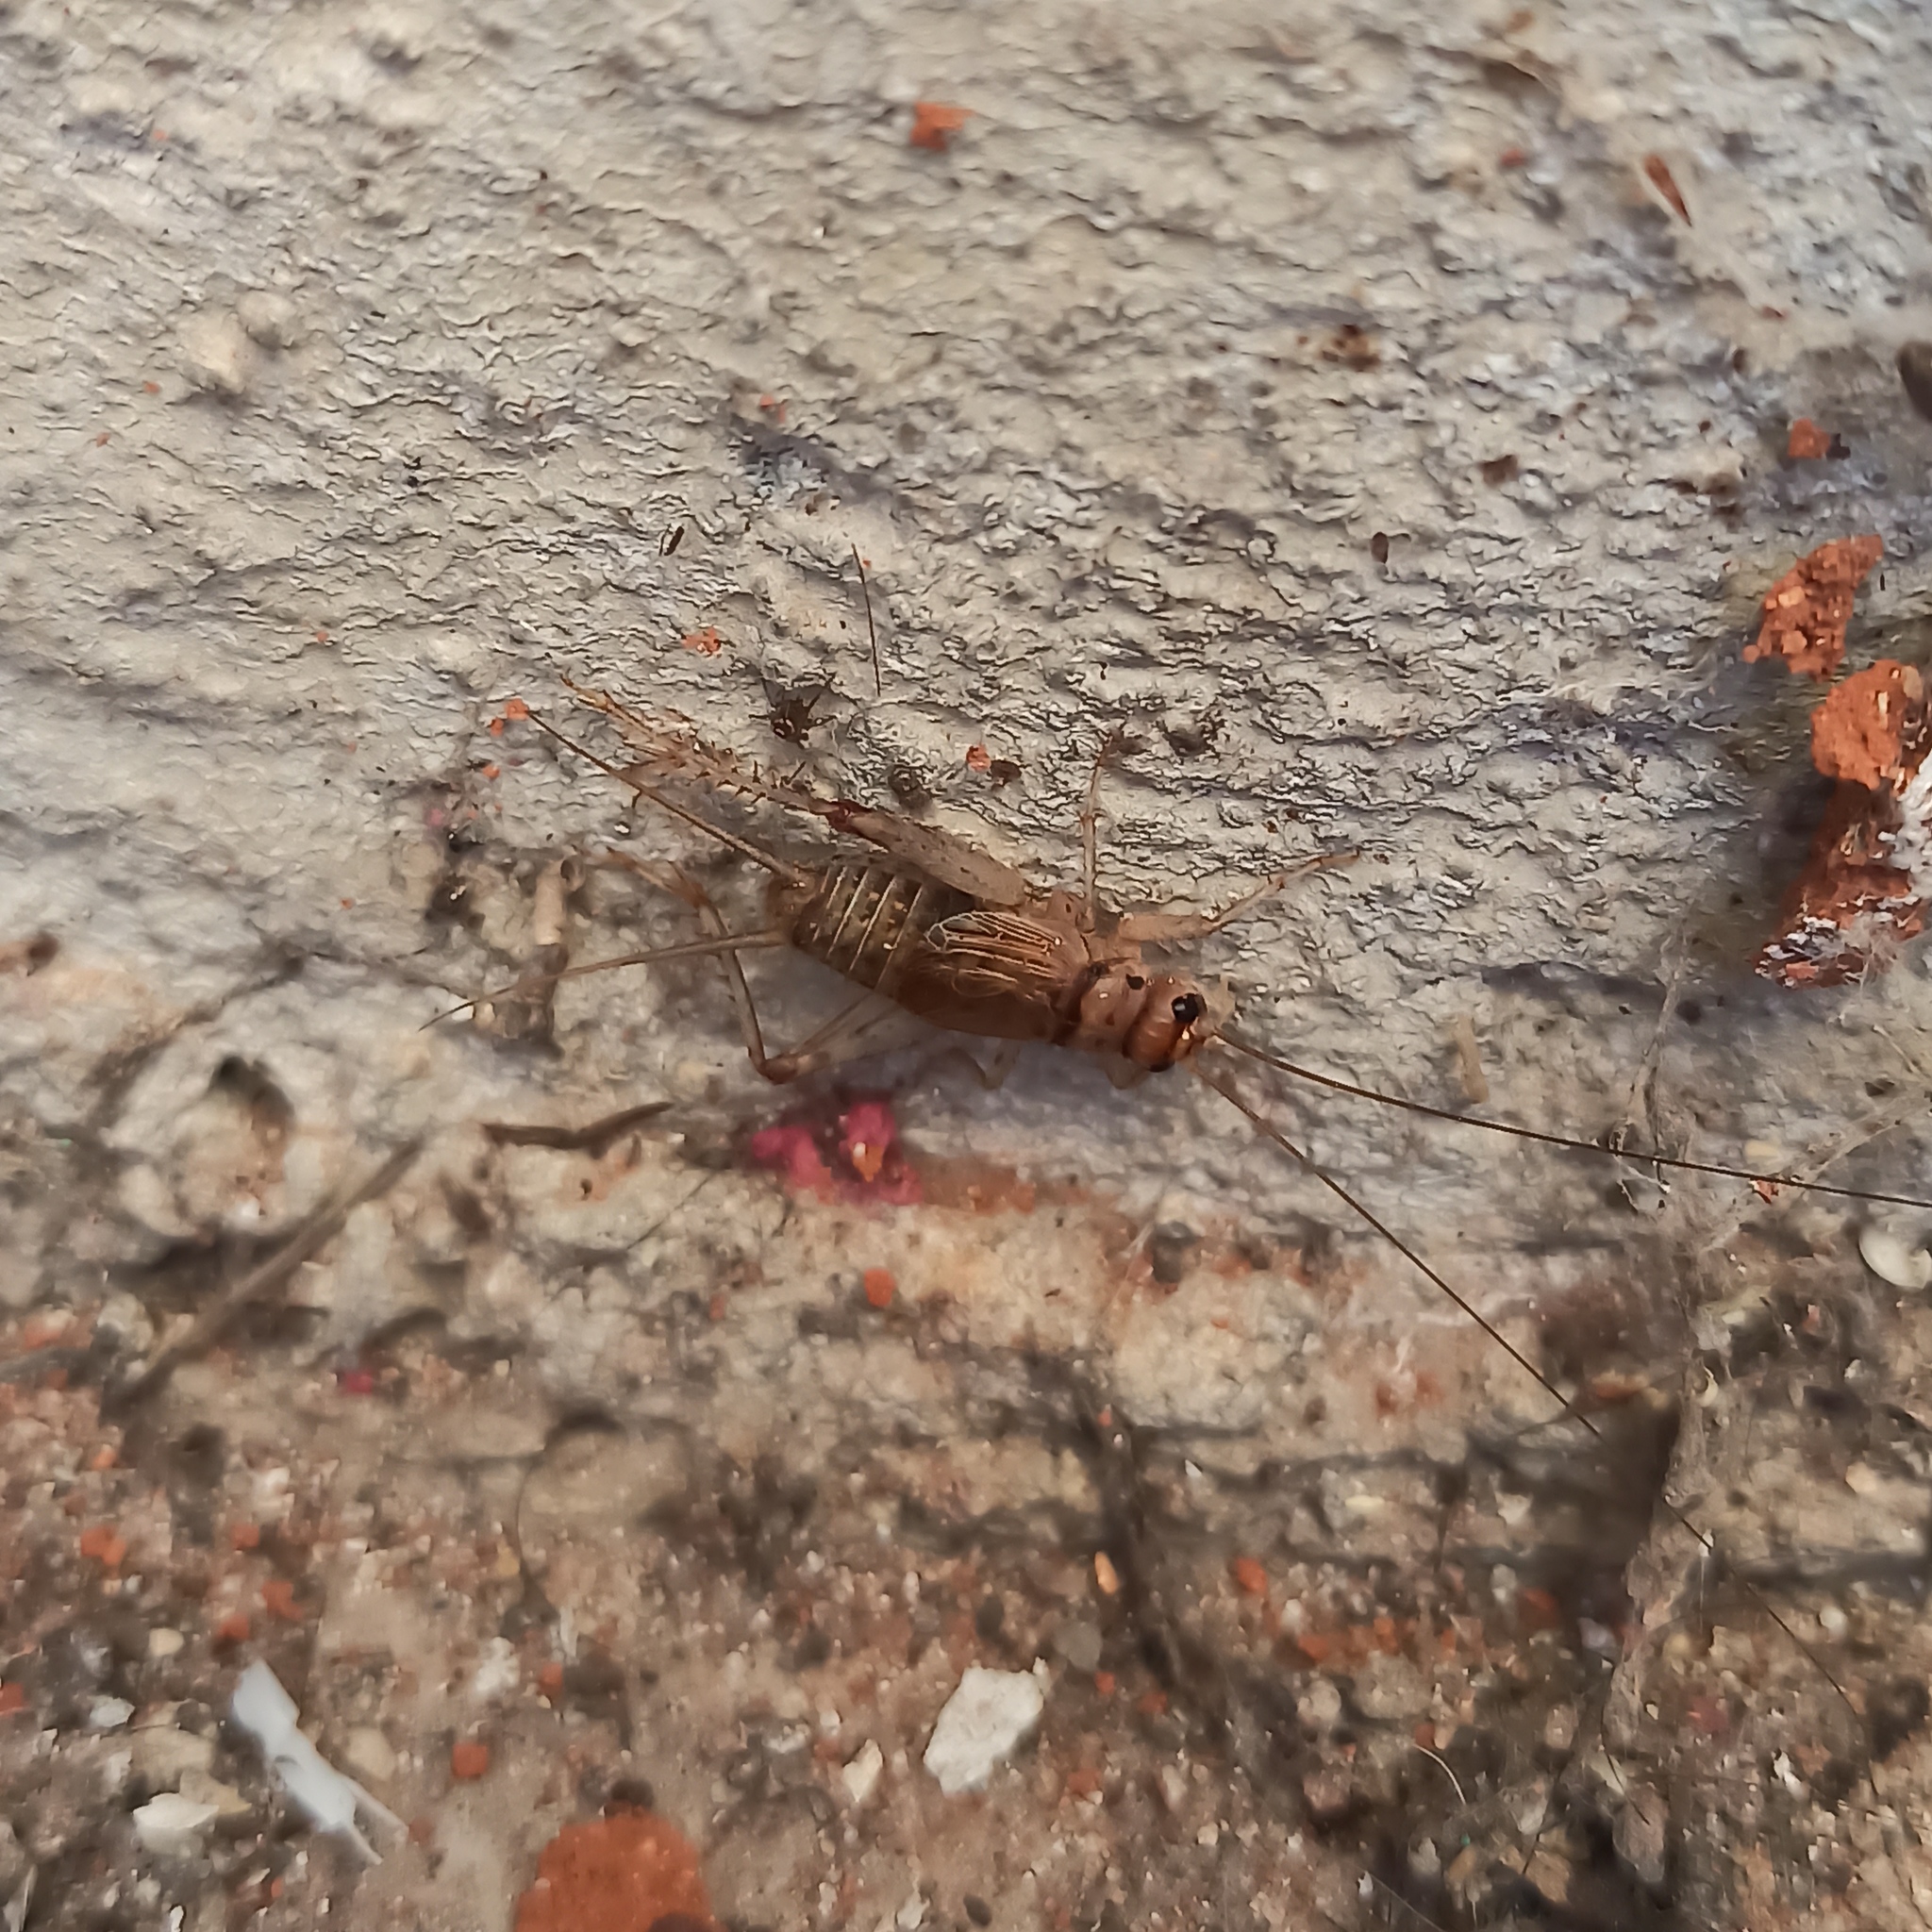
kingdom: Animalia
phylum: Arthropoda
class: Insecta
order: Orthoptera
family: Gryllidae
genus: Gryllodes
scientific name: Gryllodes sigillatus
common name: Tropical house cricket
